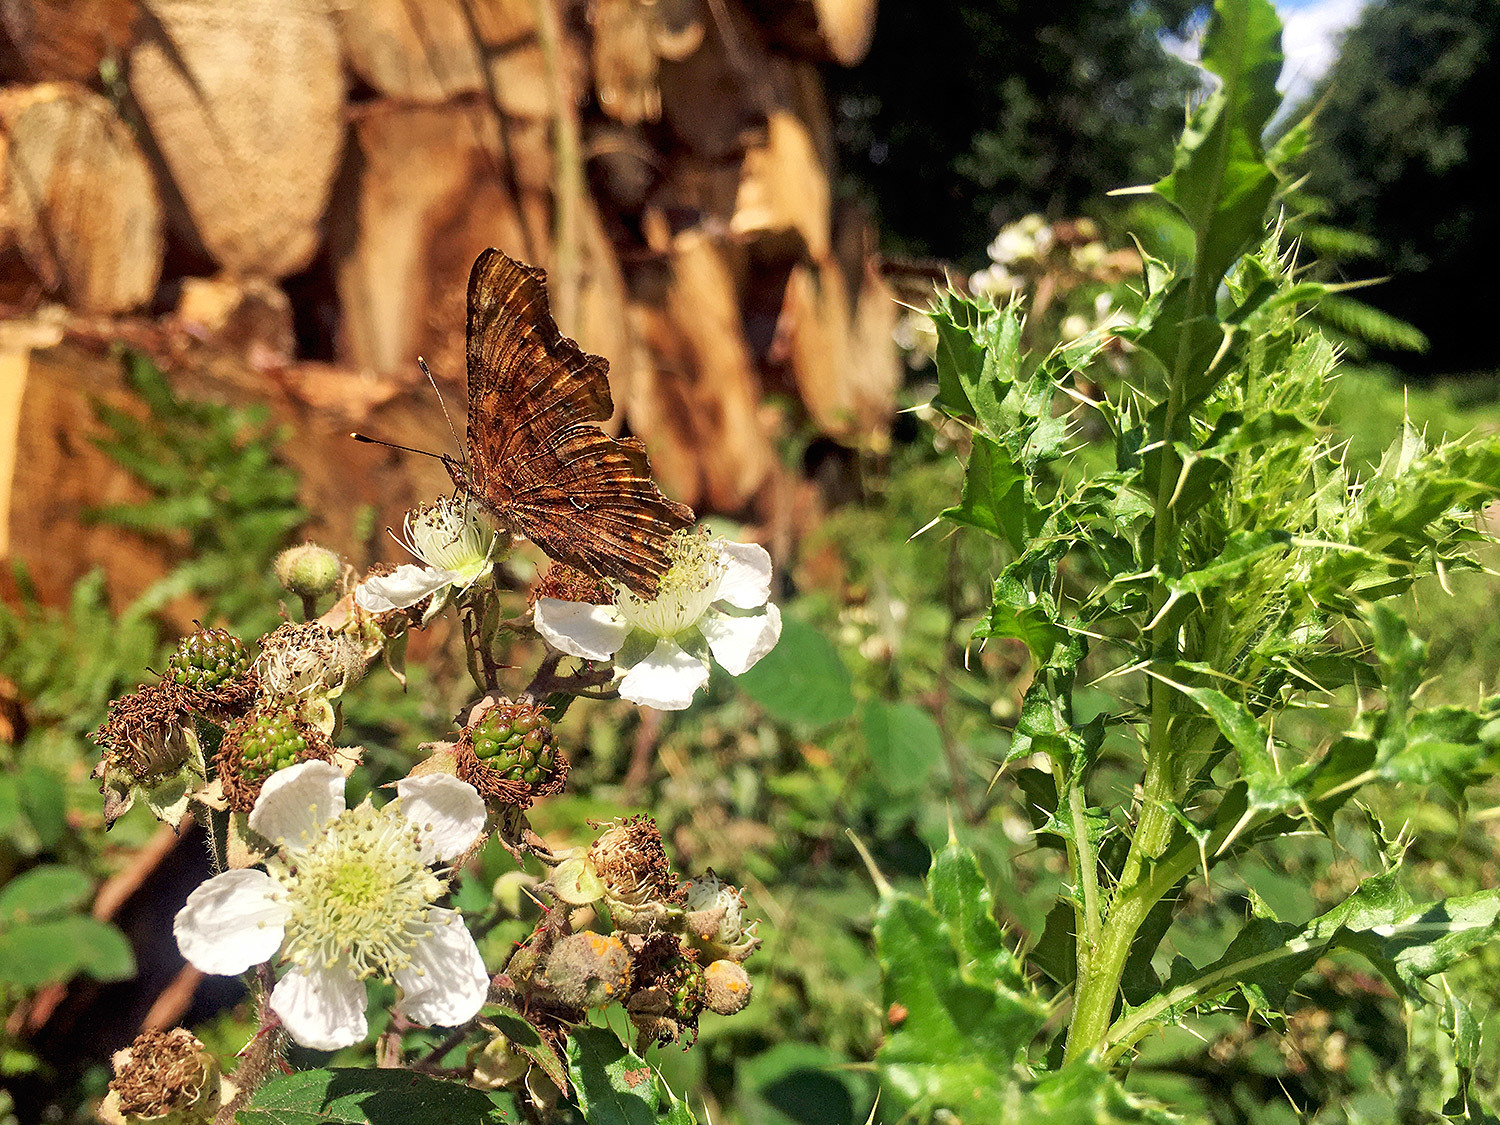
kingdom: Animalia
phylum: Arthropoda
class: Insecta
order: Lepidoptera
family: Nymphalidae
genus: Polygonia
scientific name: Polygonia c-album
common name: Comma
